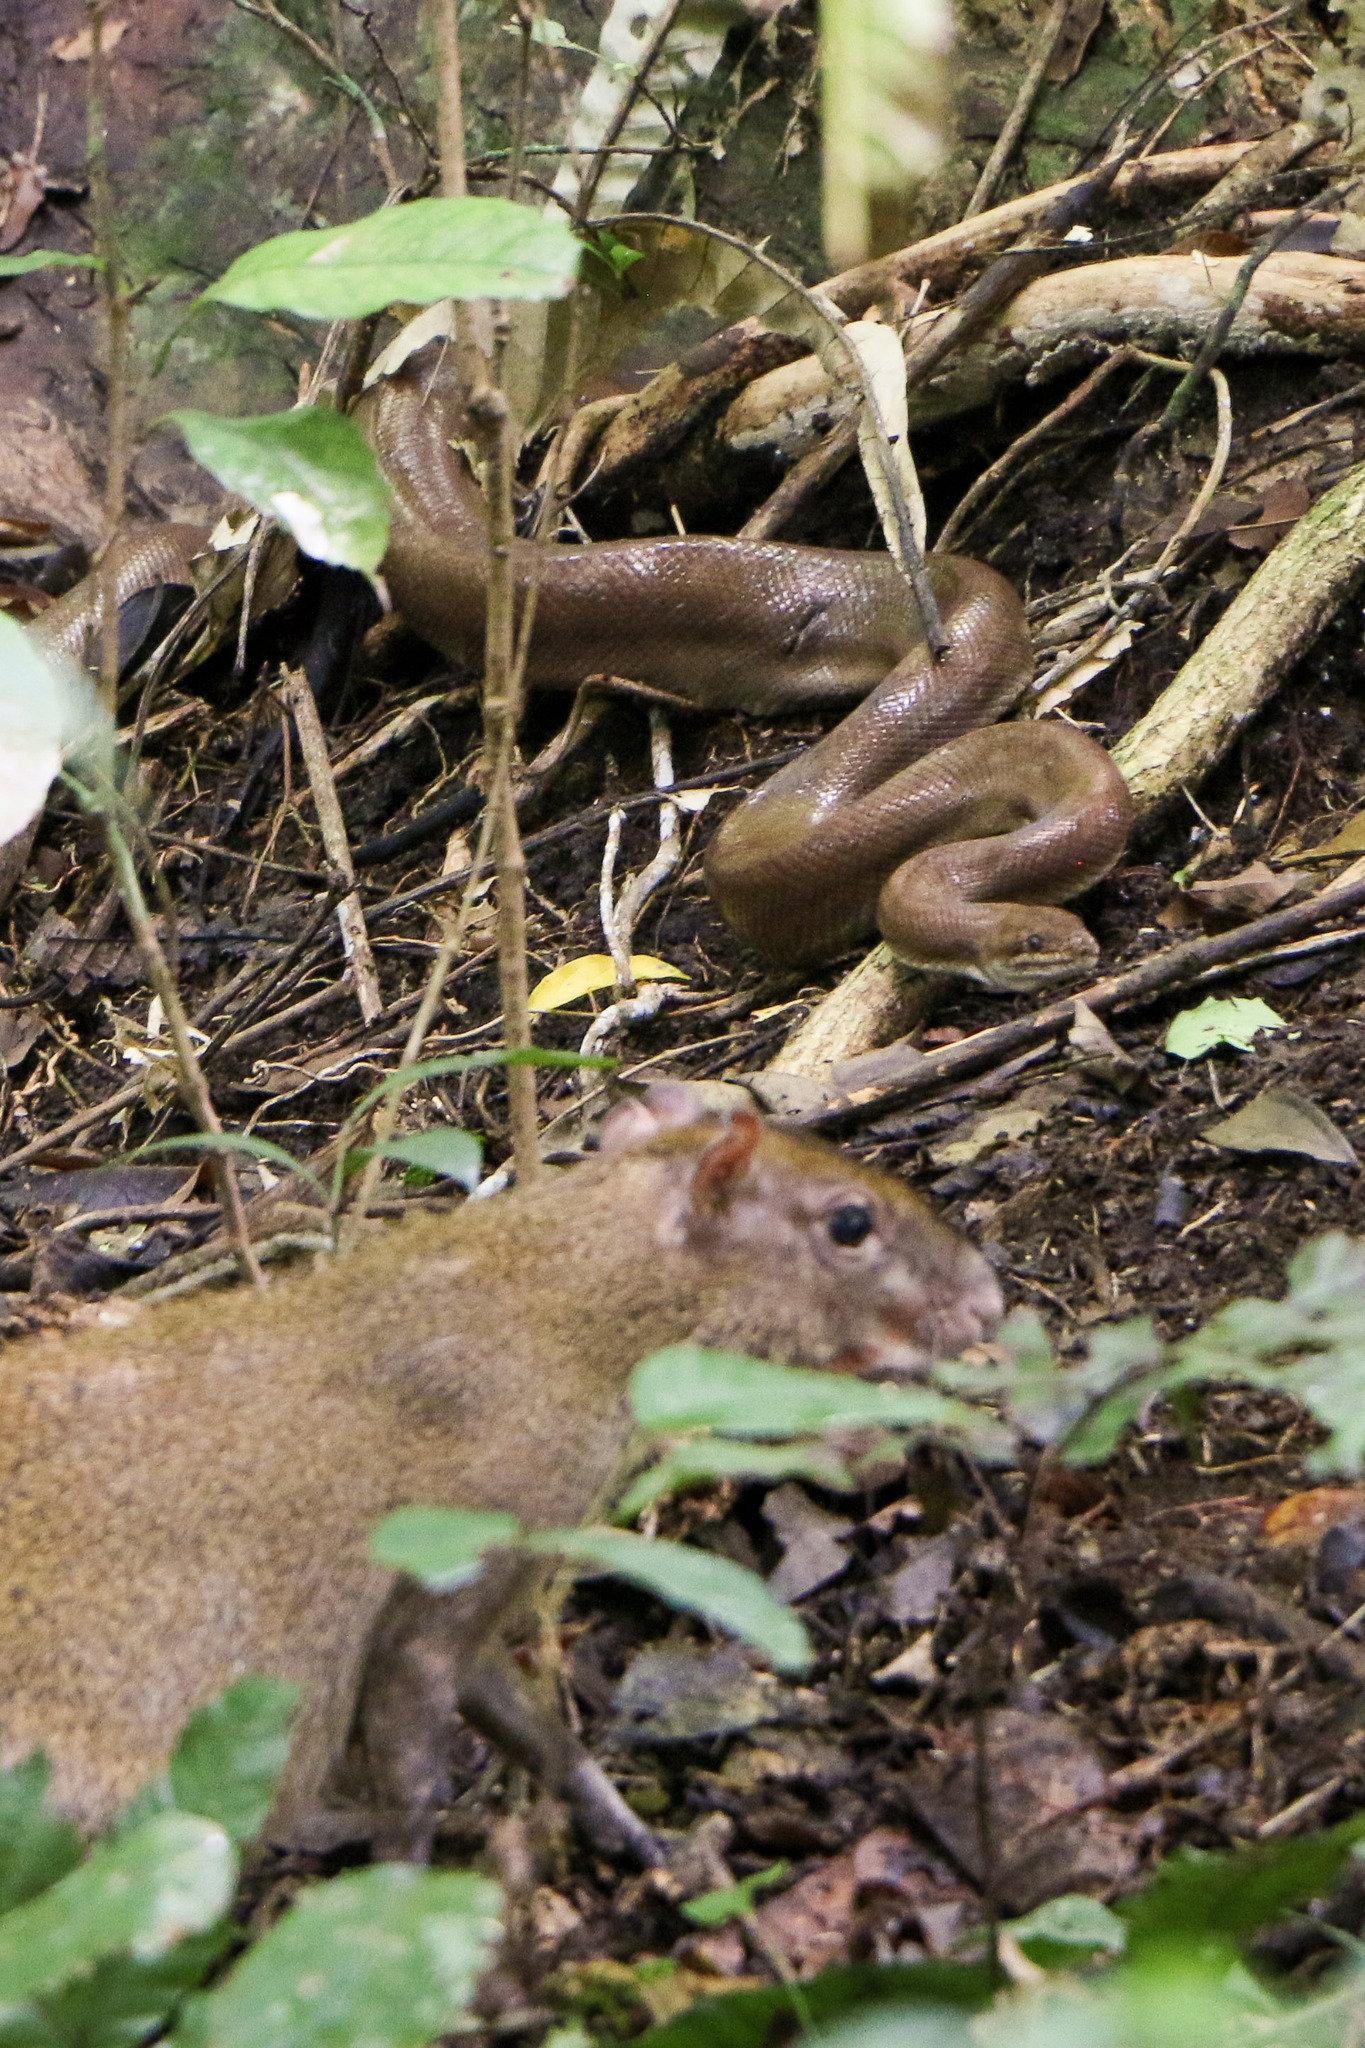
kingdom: Animalia
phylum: Chordata
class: Squamata
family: Boidae
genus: Epicrates
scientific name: Epicrates maurus
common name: Brown rainbow boa
